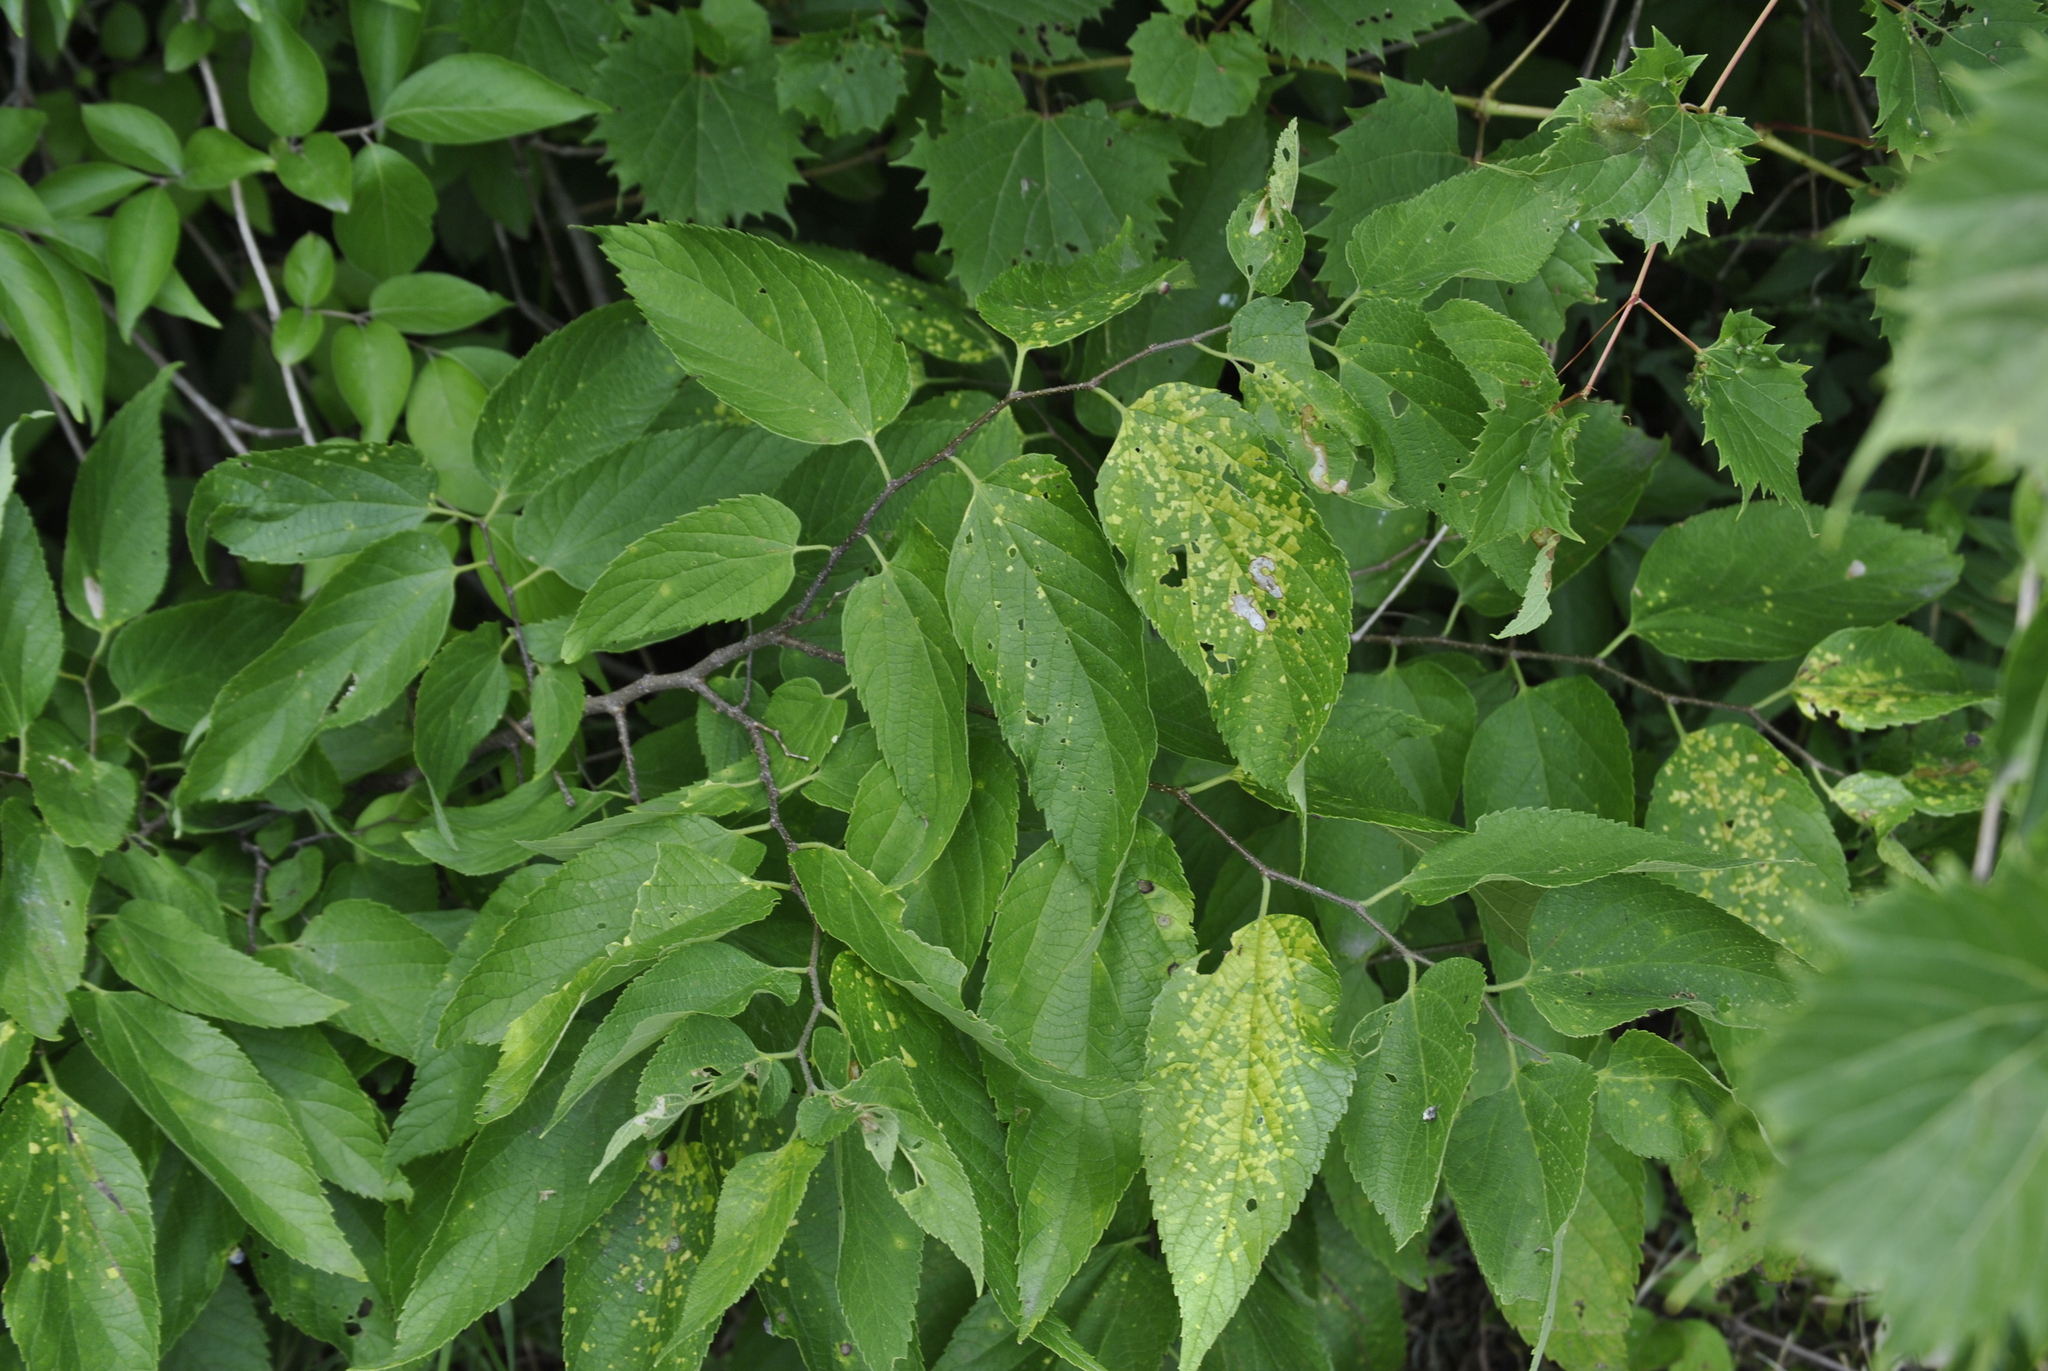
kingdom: Viruses
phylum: Kitrinoviricota
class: Alsuviricetes
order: Martellivirales
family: Closteroviridae
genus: Ampelovirus
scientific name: Ampelovirus
